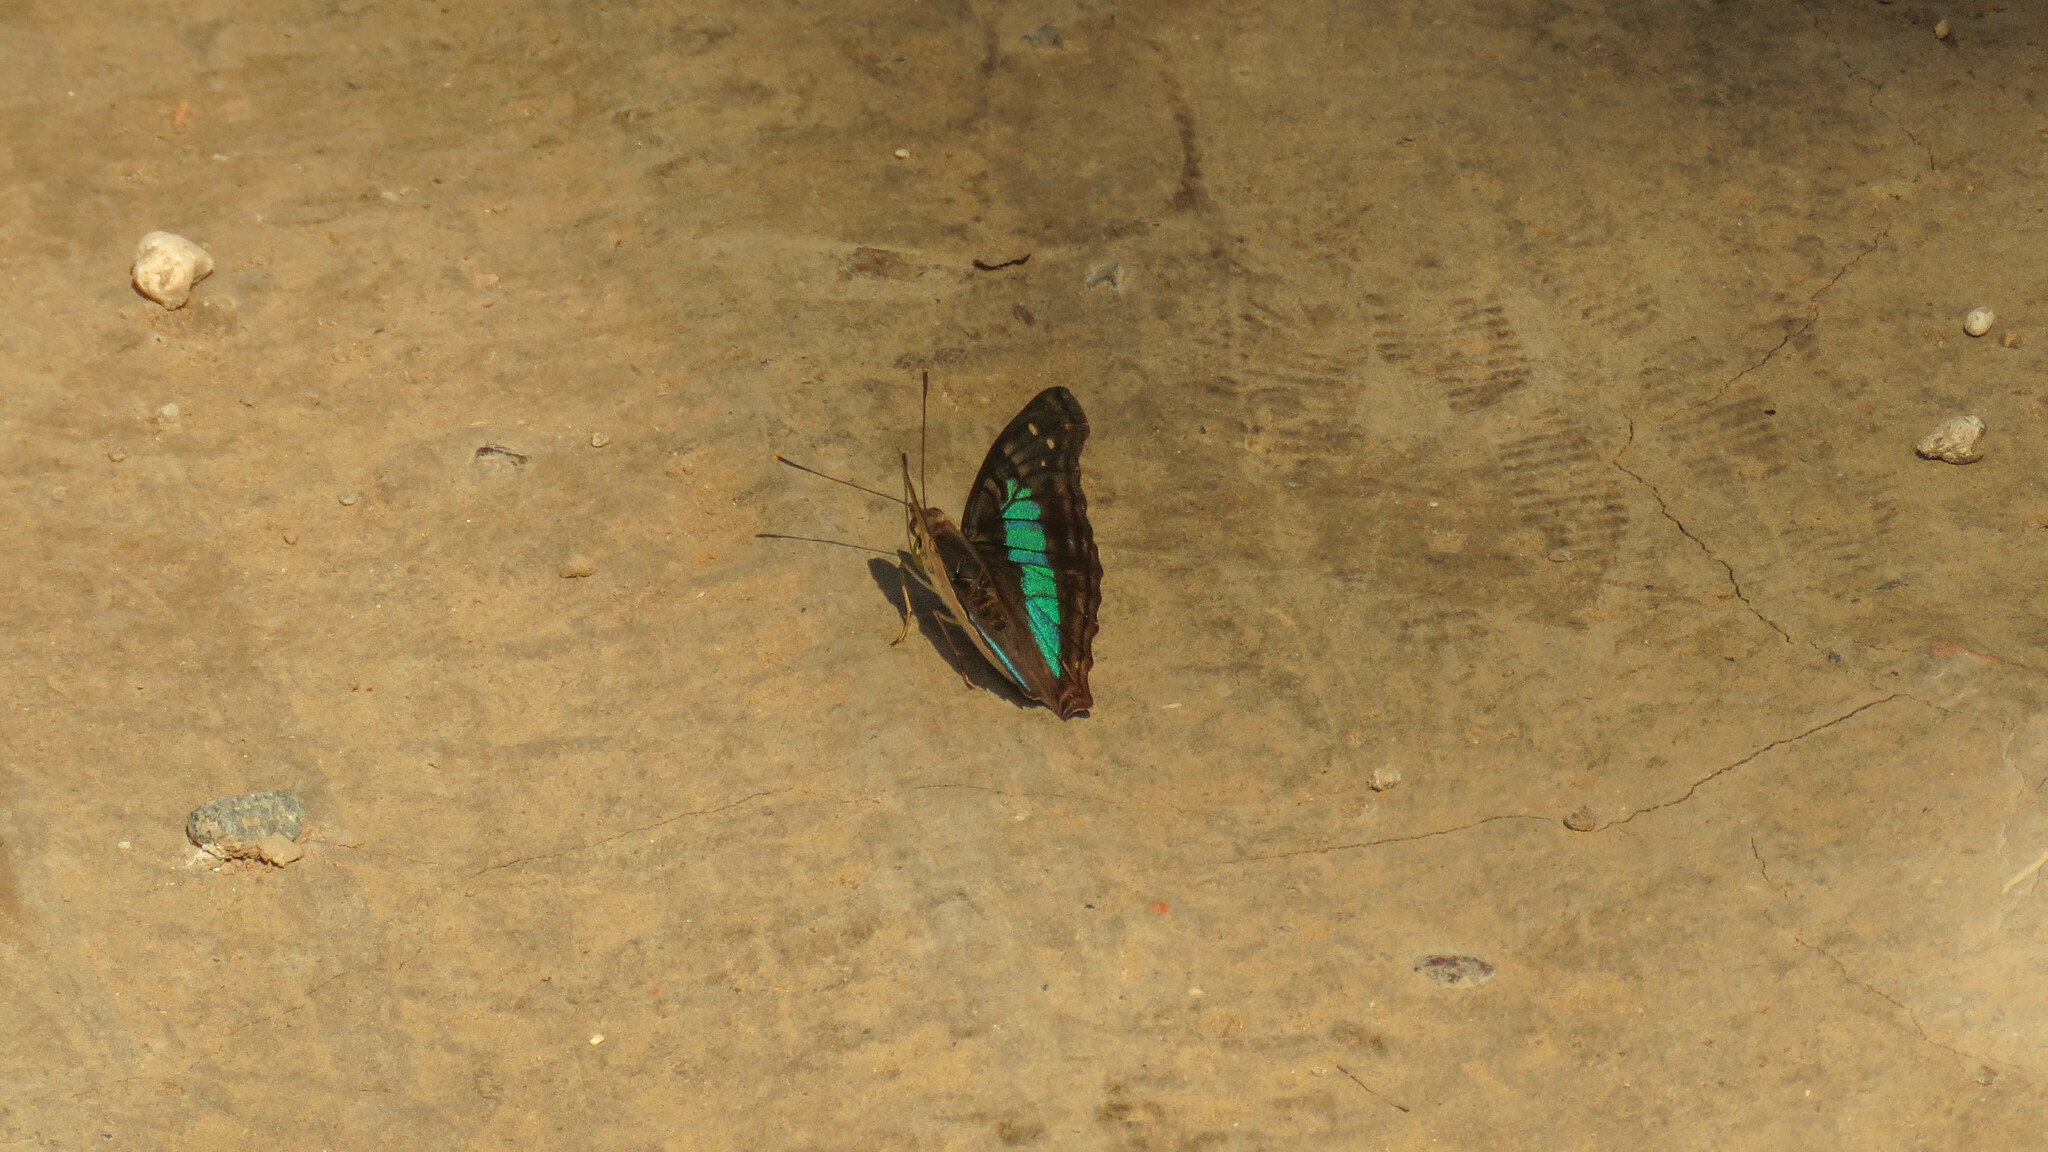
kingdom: Animalia
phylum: Arthropoda
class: Insecta
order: Lepidoptera
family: Nymphalidae
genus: Doxocopa
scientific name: Doxocopa laurentia
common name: Turquoise emperor
